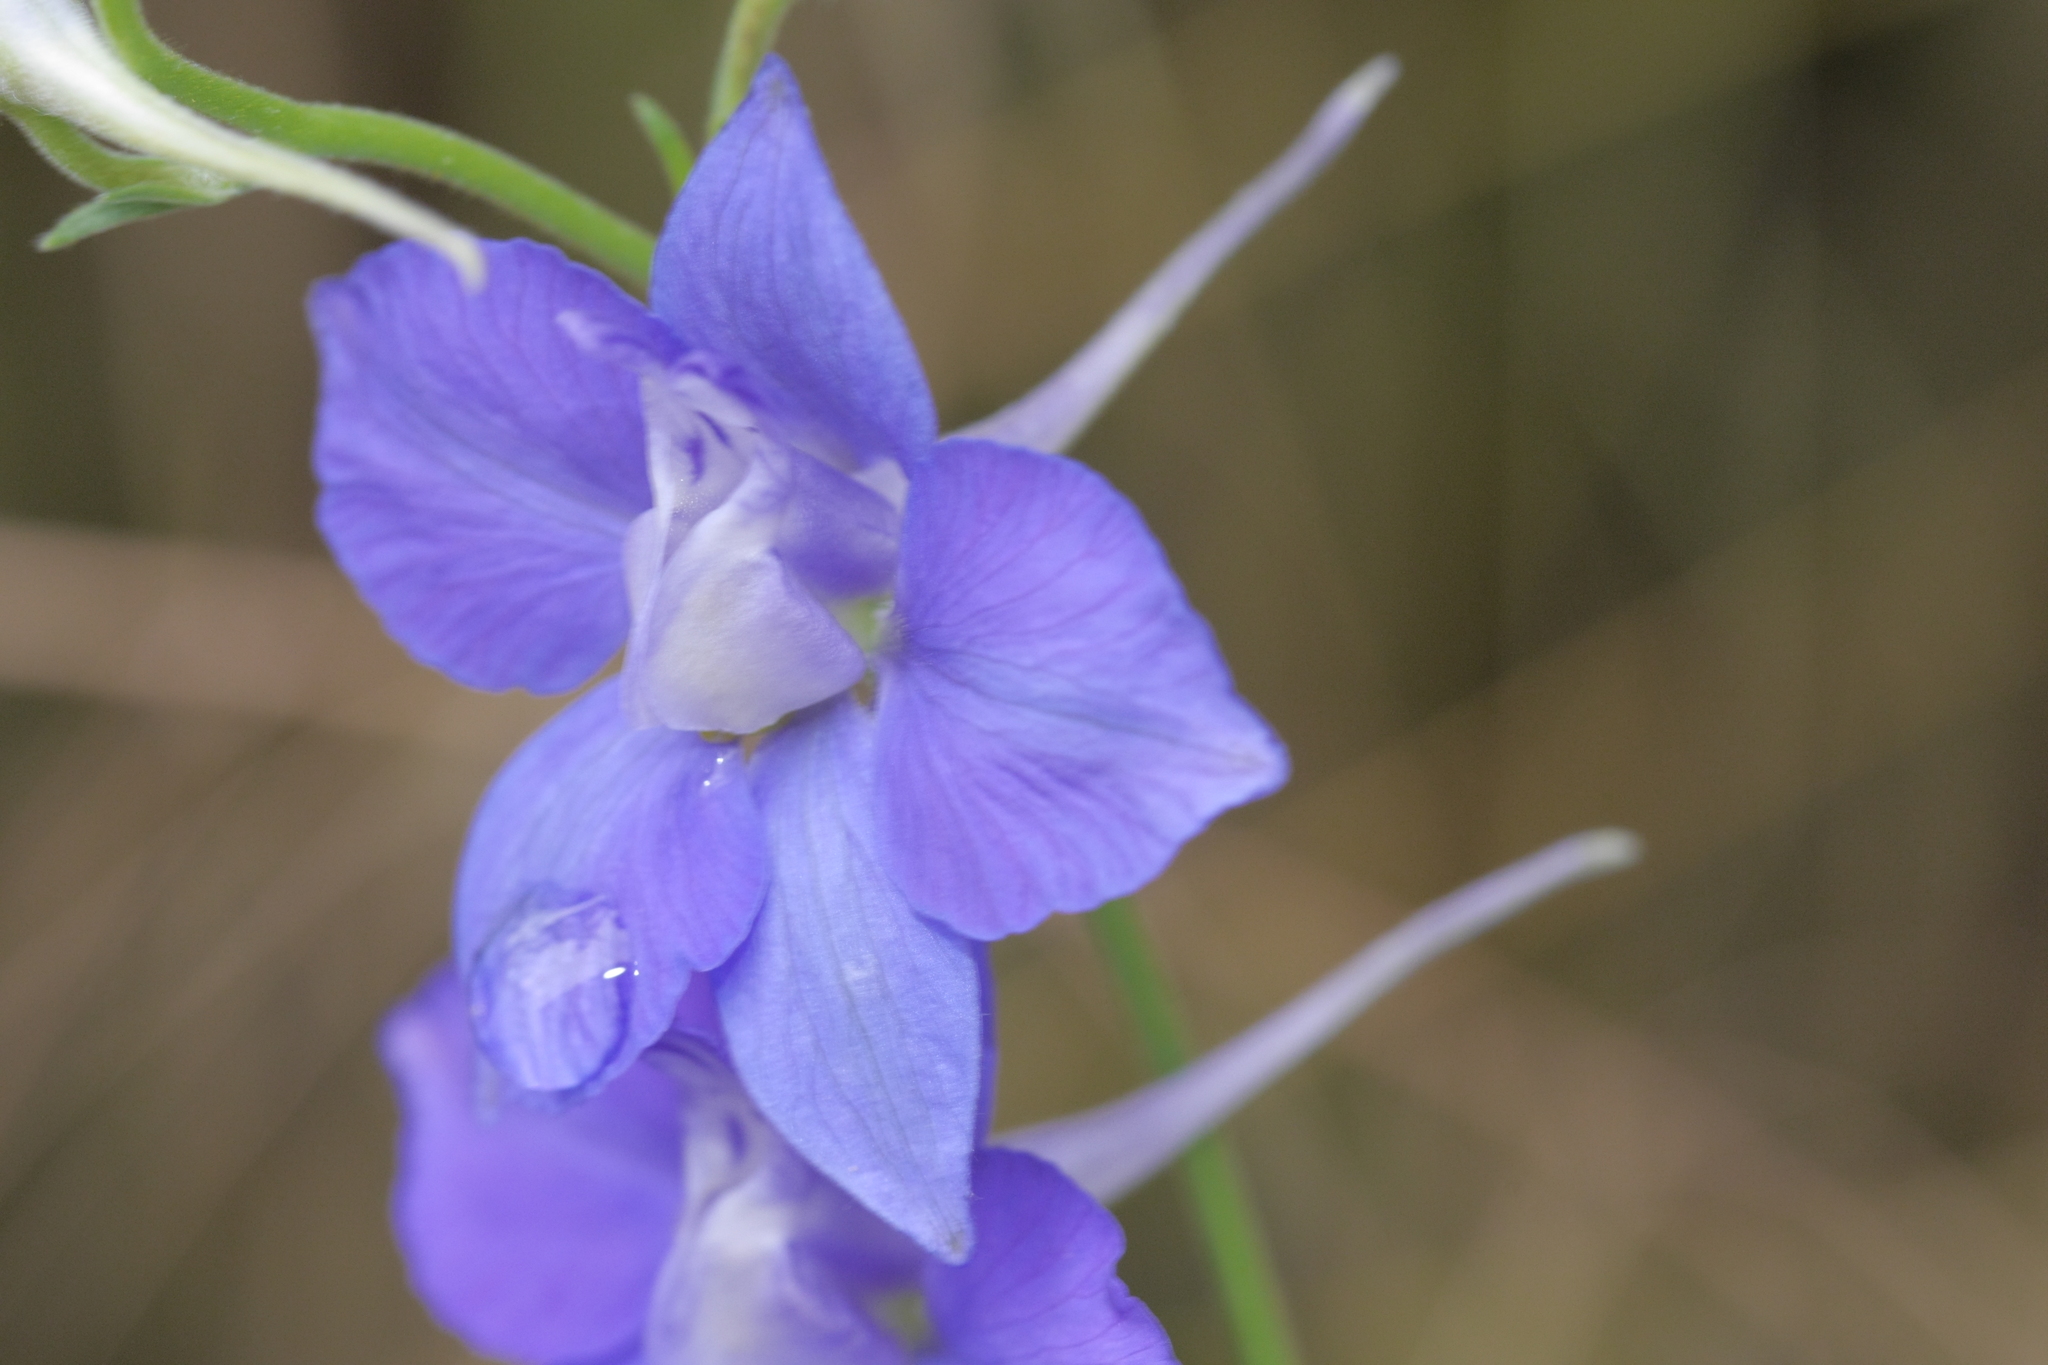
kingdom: Plantae
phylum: Tracheophyta
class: Magnoliopsida
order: Ranunculales
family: Ranunculaceae
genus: Delphinium
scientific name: Delphinium ajacis
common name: Doubtful knight's-spur
